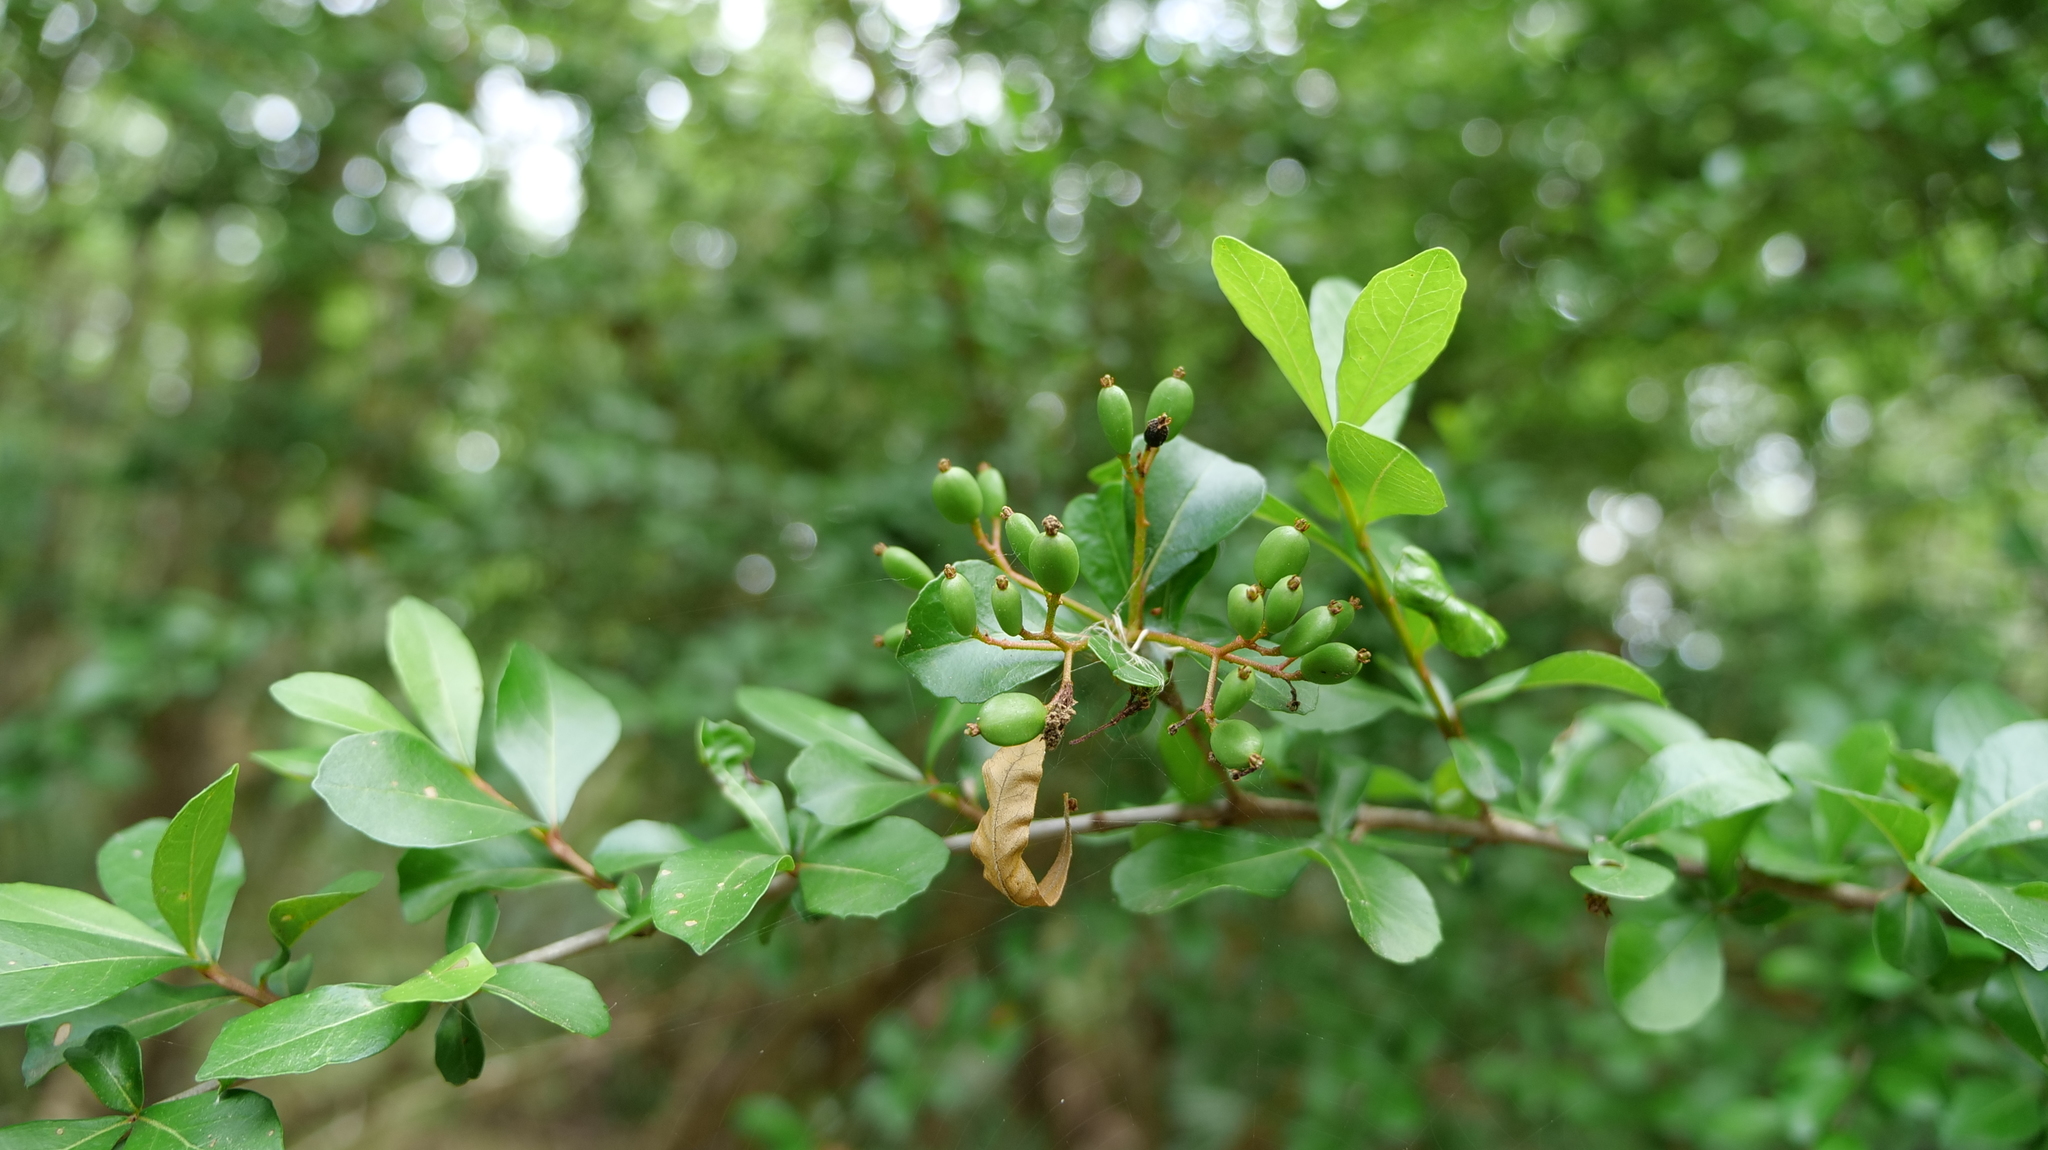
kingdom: Plantae
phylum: Tracheophyta
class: Magnoliopsida
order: Dipsacales
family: Viburnaceae
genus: Viburnum
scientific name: Viburnum obovatum
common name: Walter's viburnum
